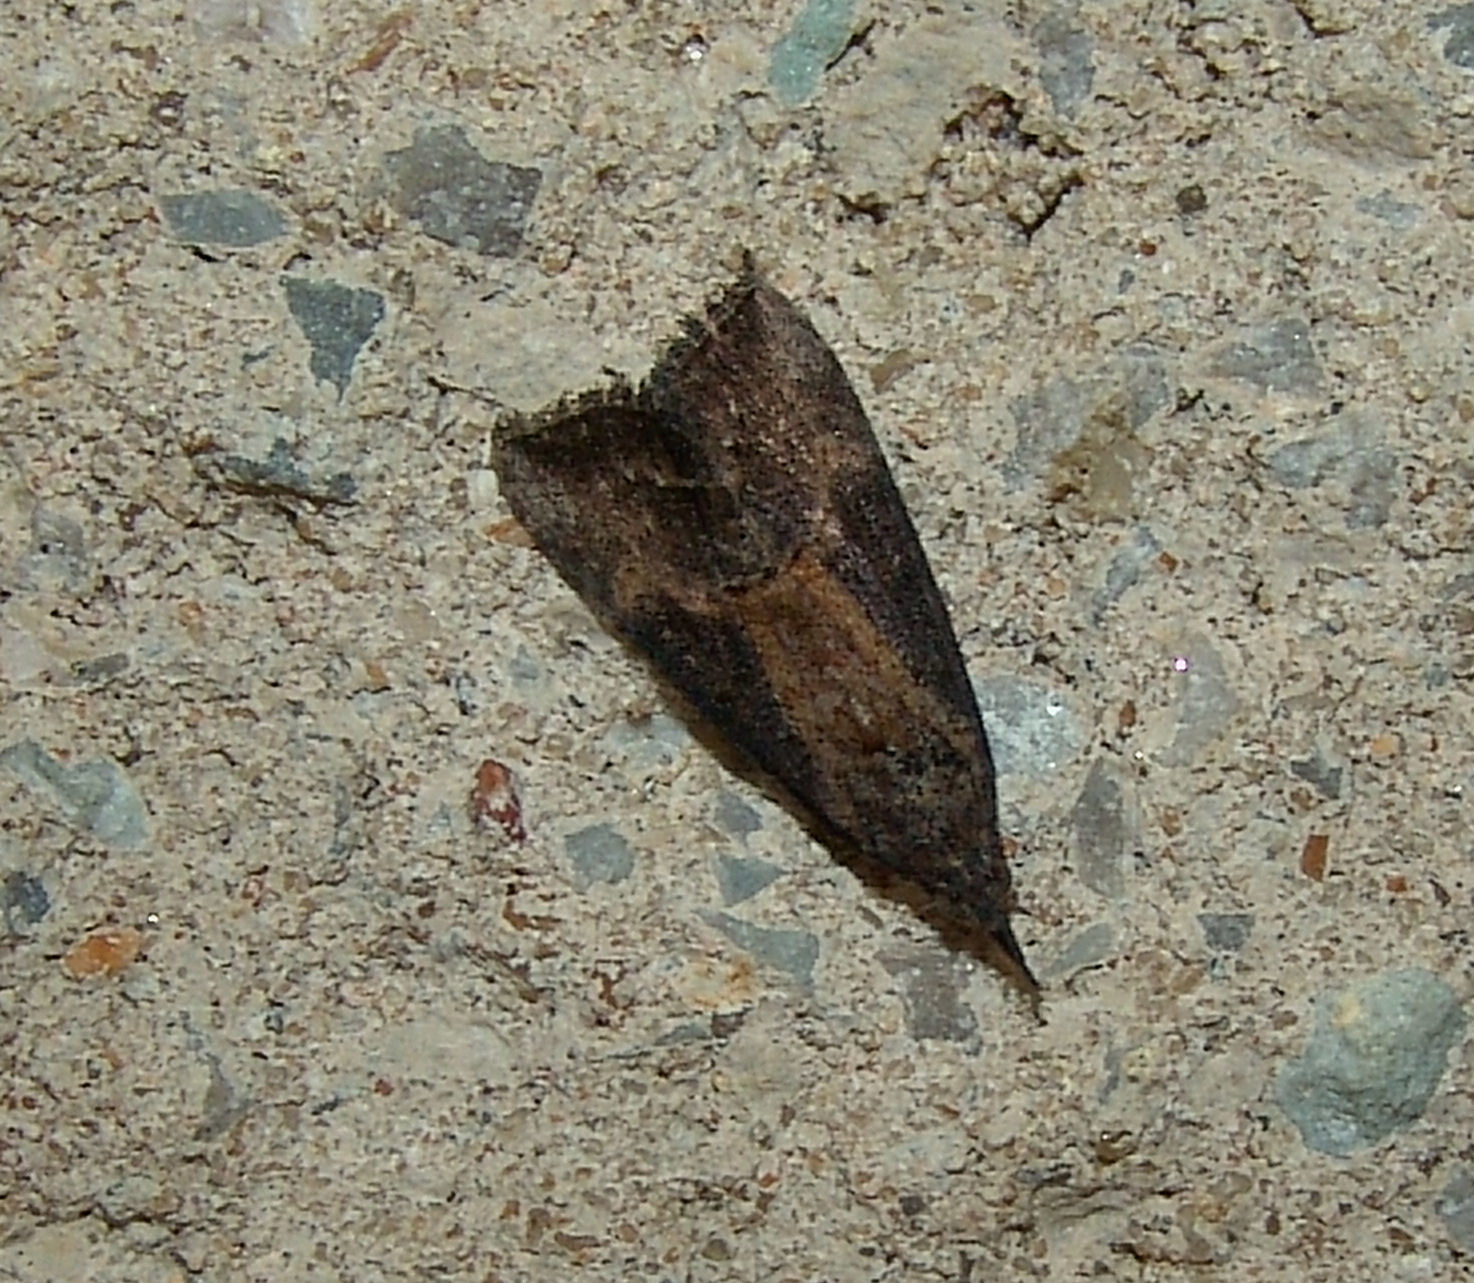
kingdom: Animalia
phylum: Arthropoda
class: Insecta
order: Lepidoptera
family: Erebidae
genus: Hypena
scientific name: Hypena scabra
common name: Green cloverworm
